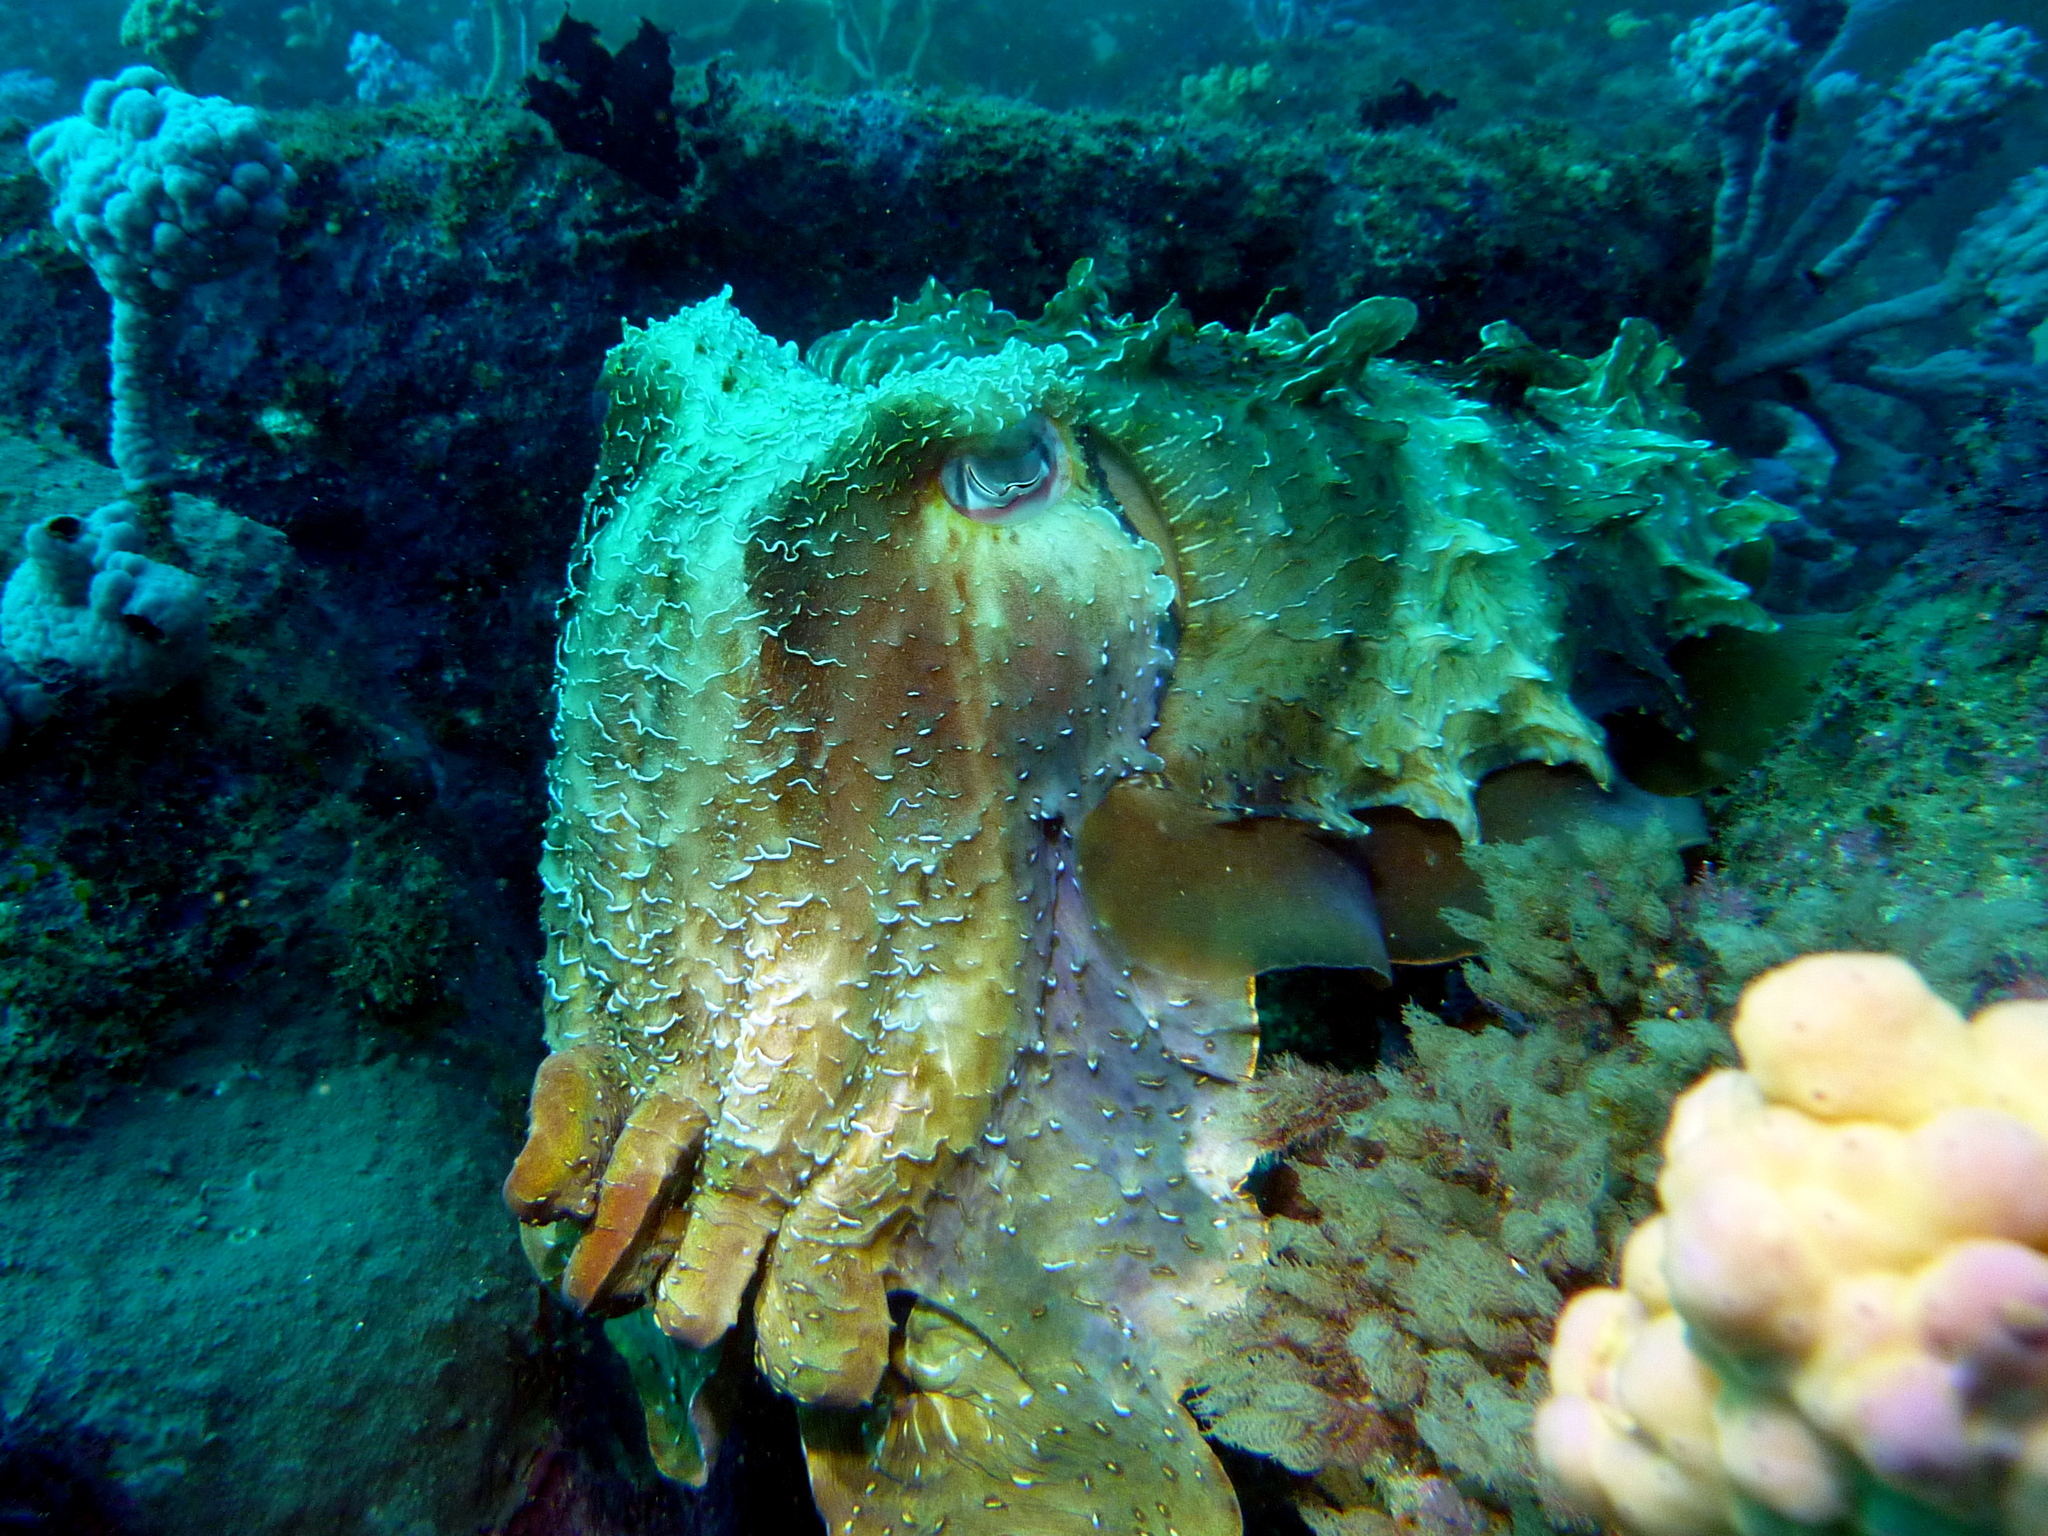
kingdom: Animalia
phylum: Mollusca
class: Cephalopoda
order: Sepiida
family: Sepiidae
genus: Ascarosepion
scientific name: Ascarosepion apama
